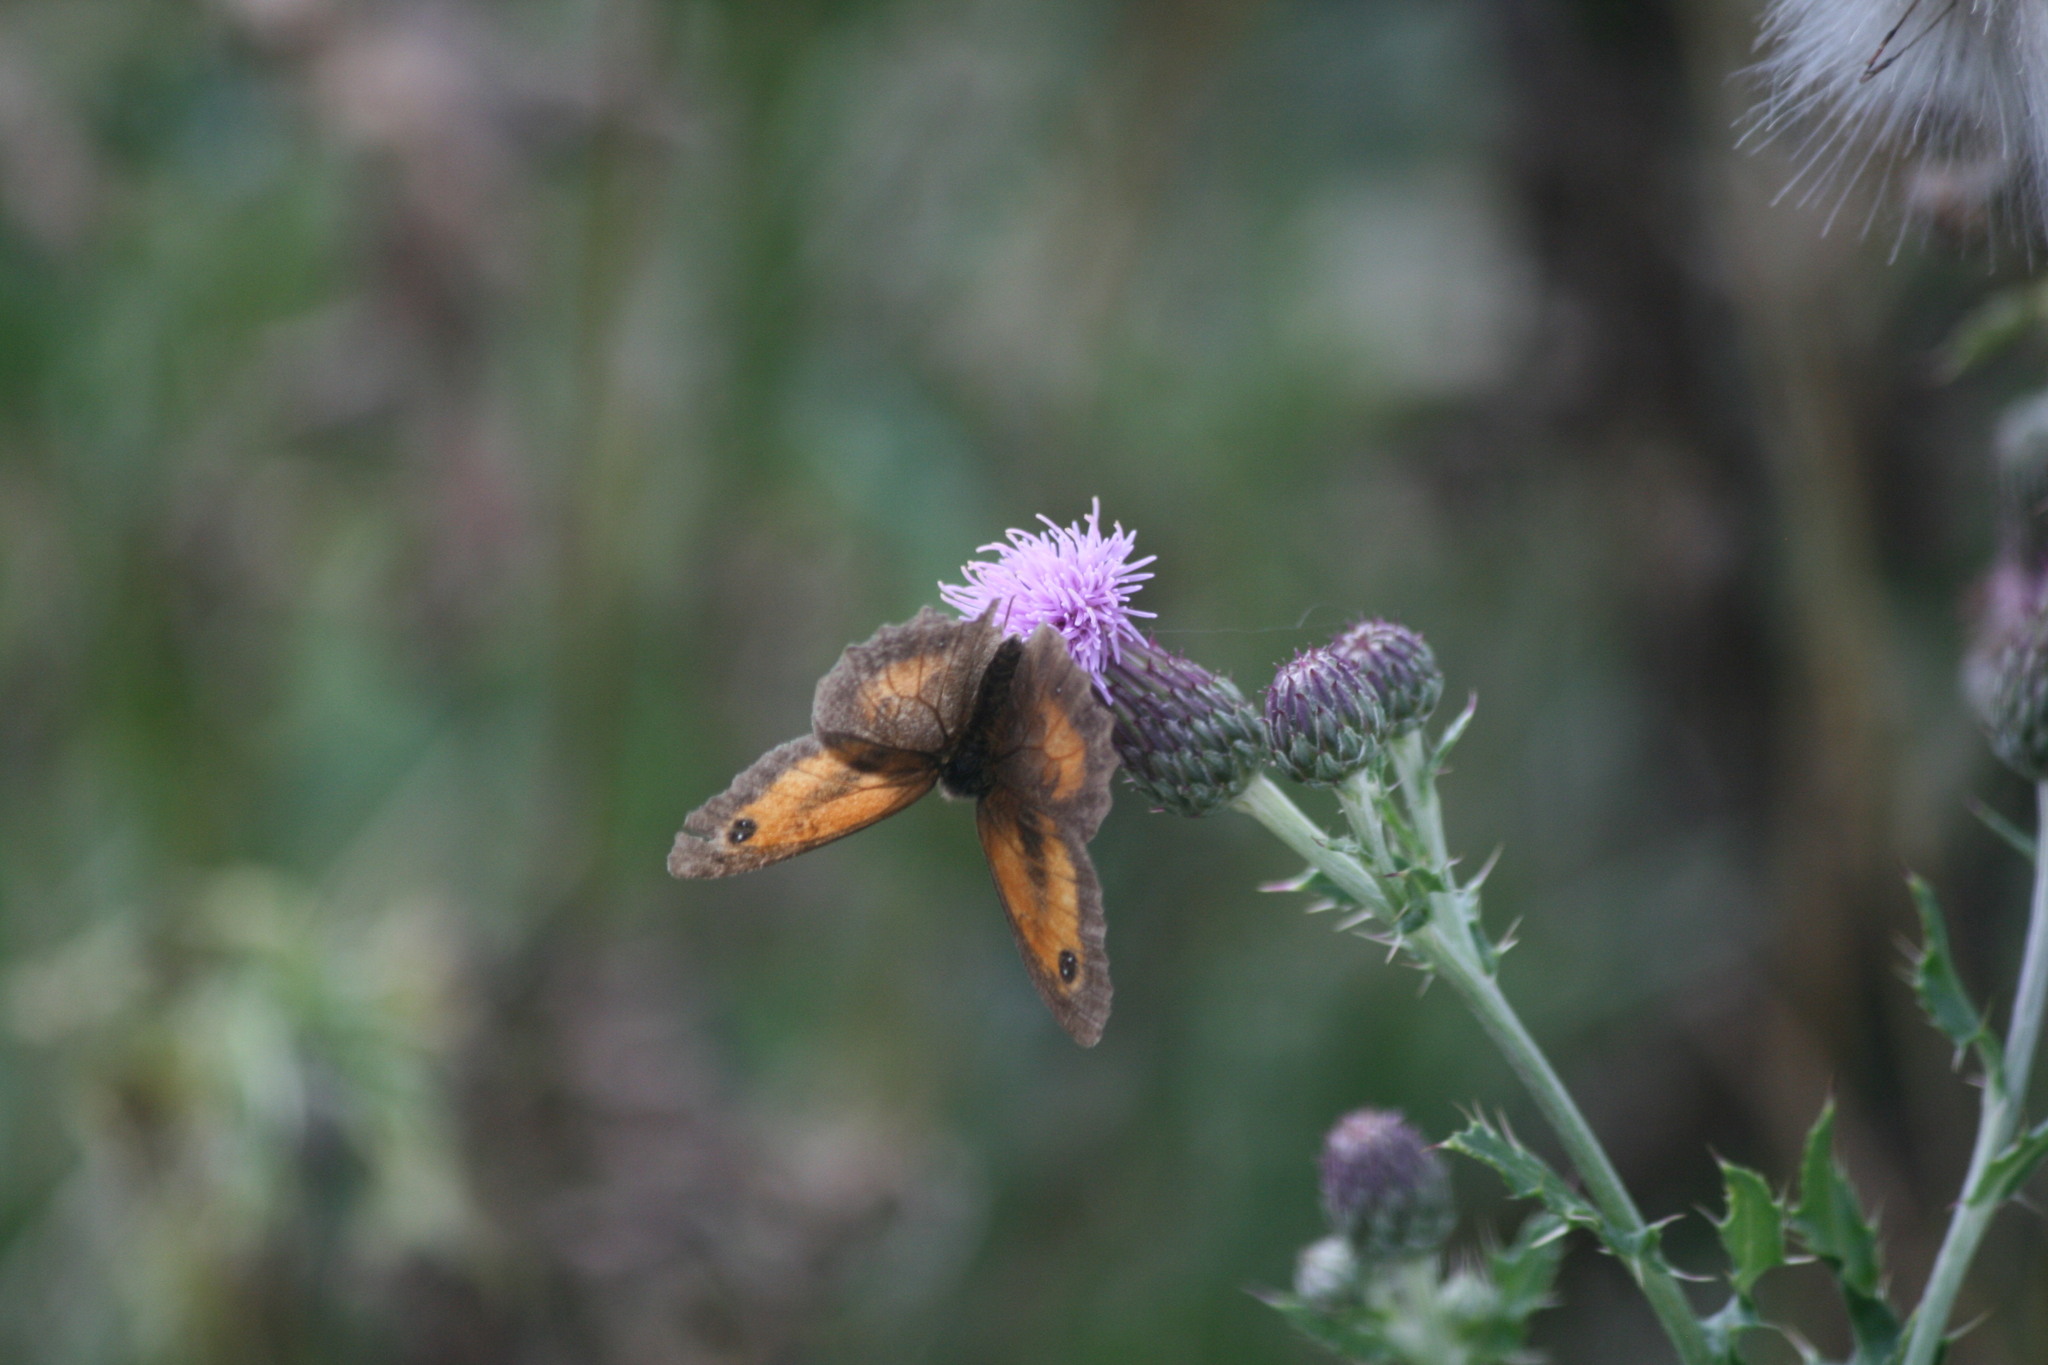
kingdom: Animalia
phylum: Arthropoda
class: Insecta
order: Lepidoptera
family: Nymphalidae
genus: Pyronia
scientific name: Pyronia tithonus
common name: Gatekeeper
